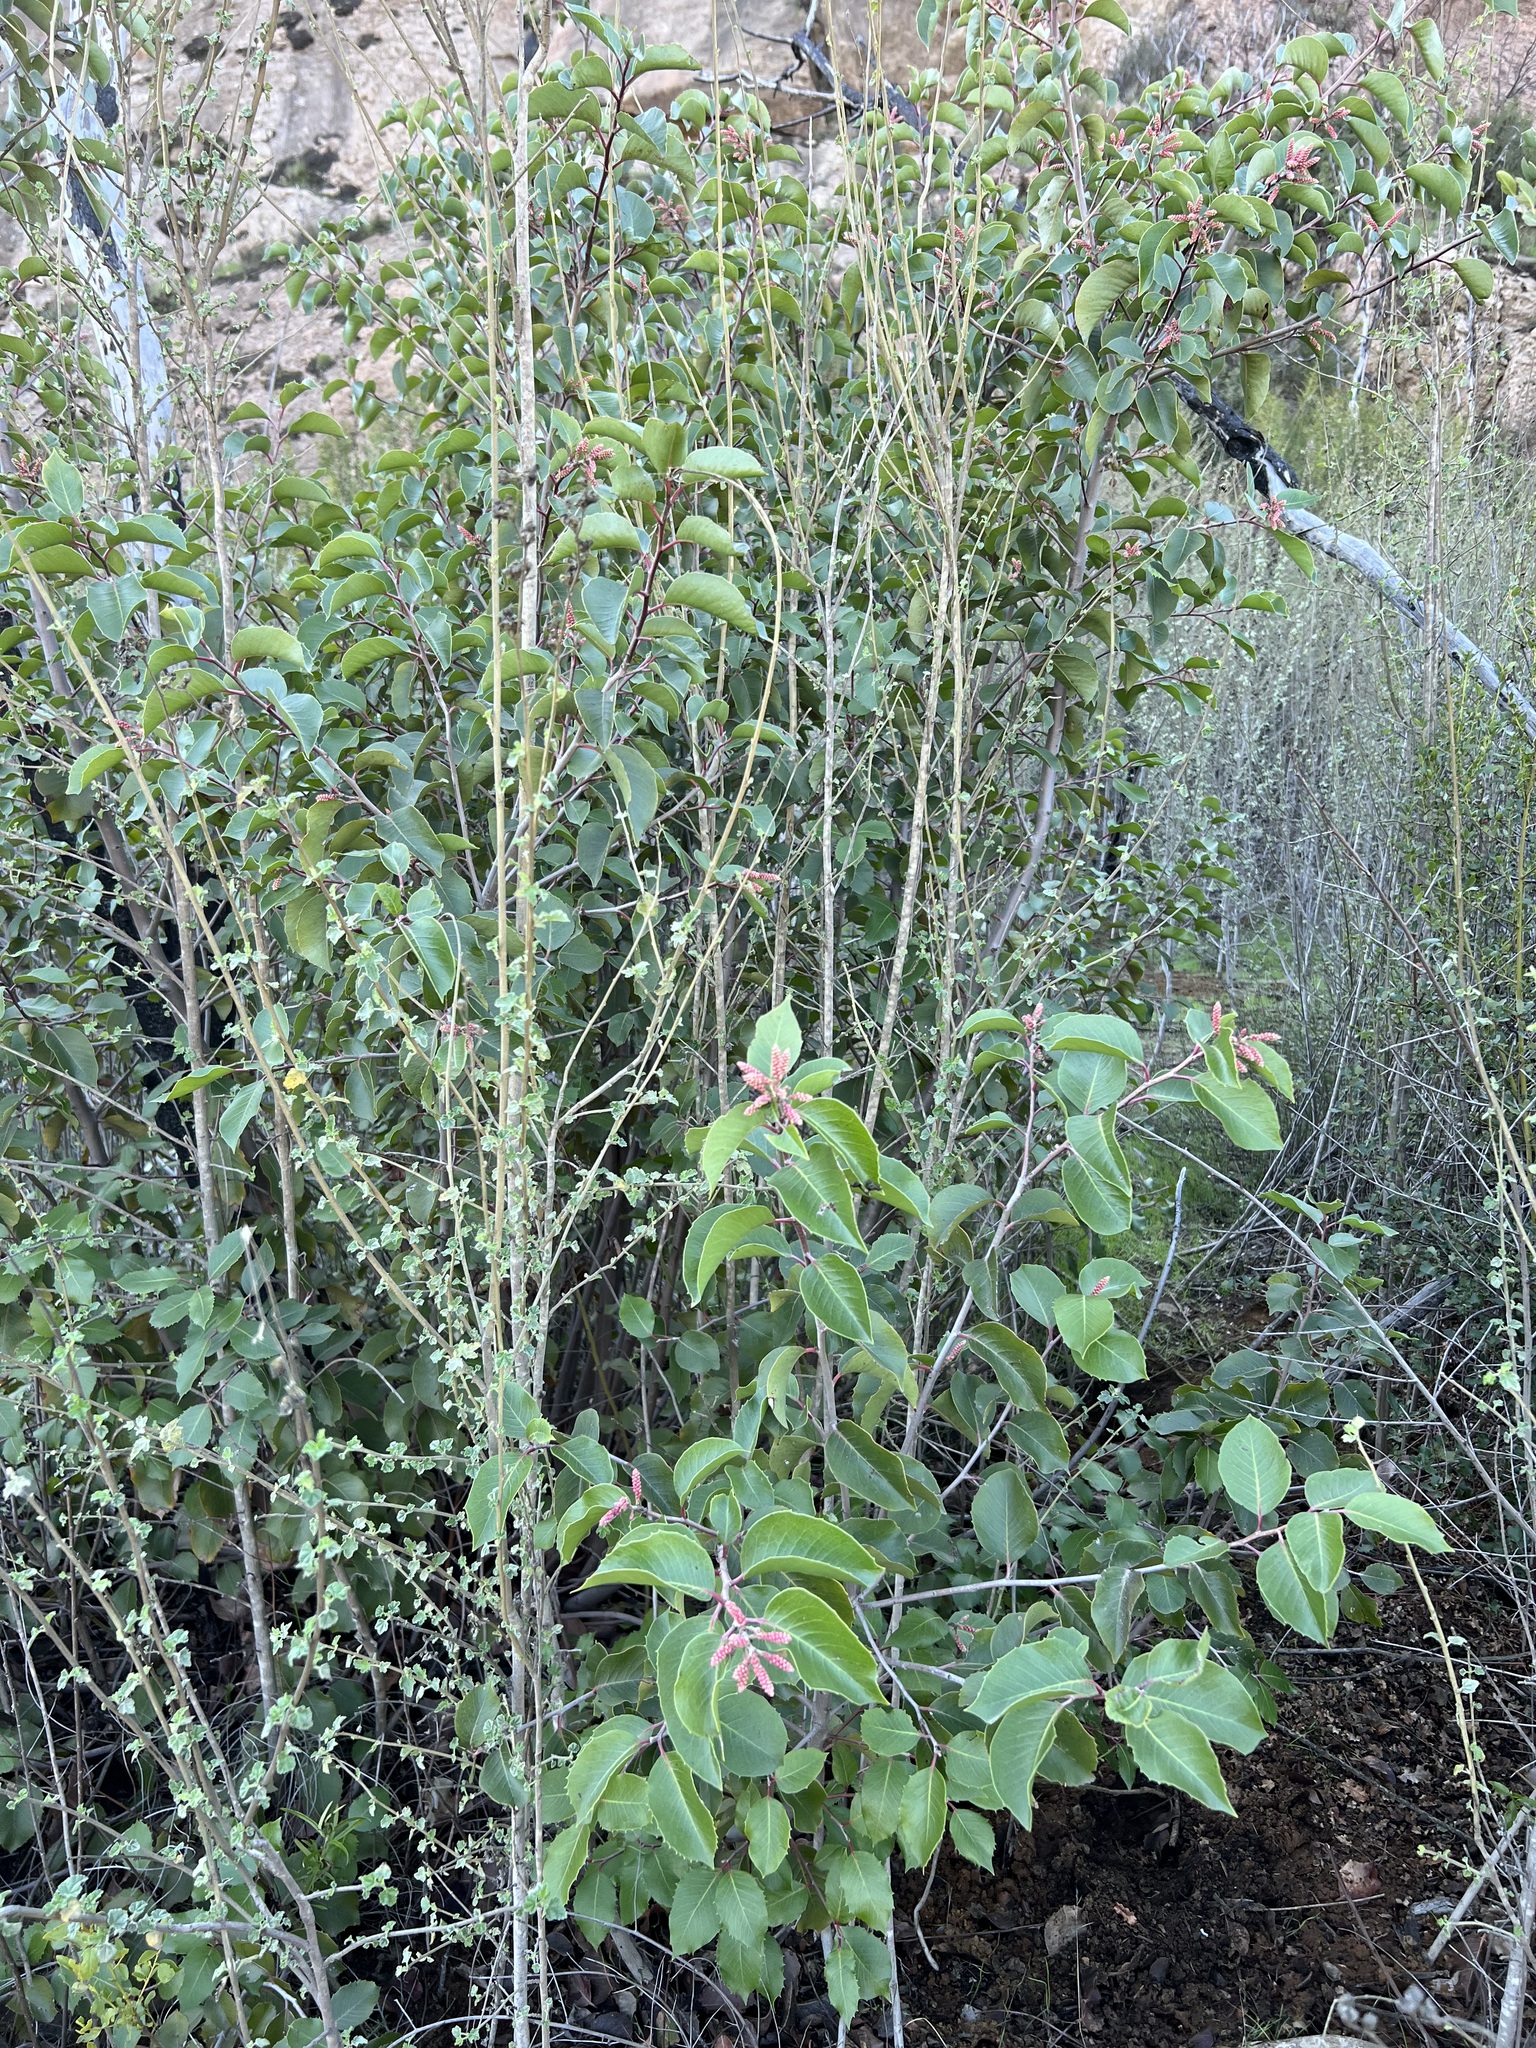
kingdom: Plantae
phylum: Tracheophyta
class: Magnoliopsida
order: Sapindales
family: Anacardiaceae
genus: Rhus
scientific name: Rhus ovata
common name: Sugar sumac
